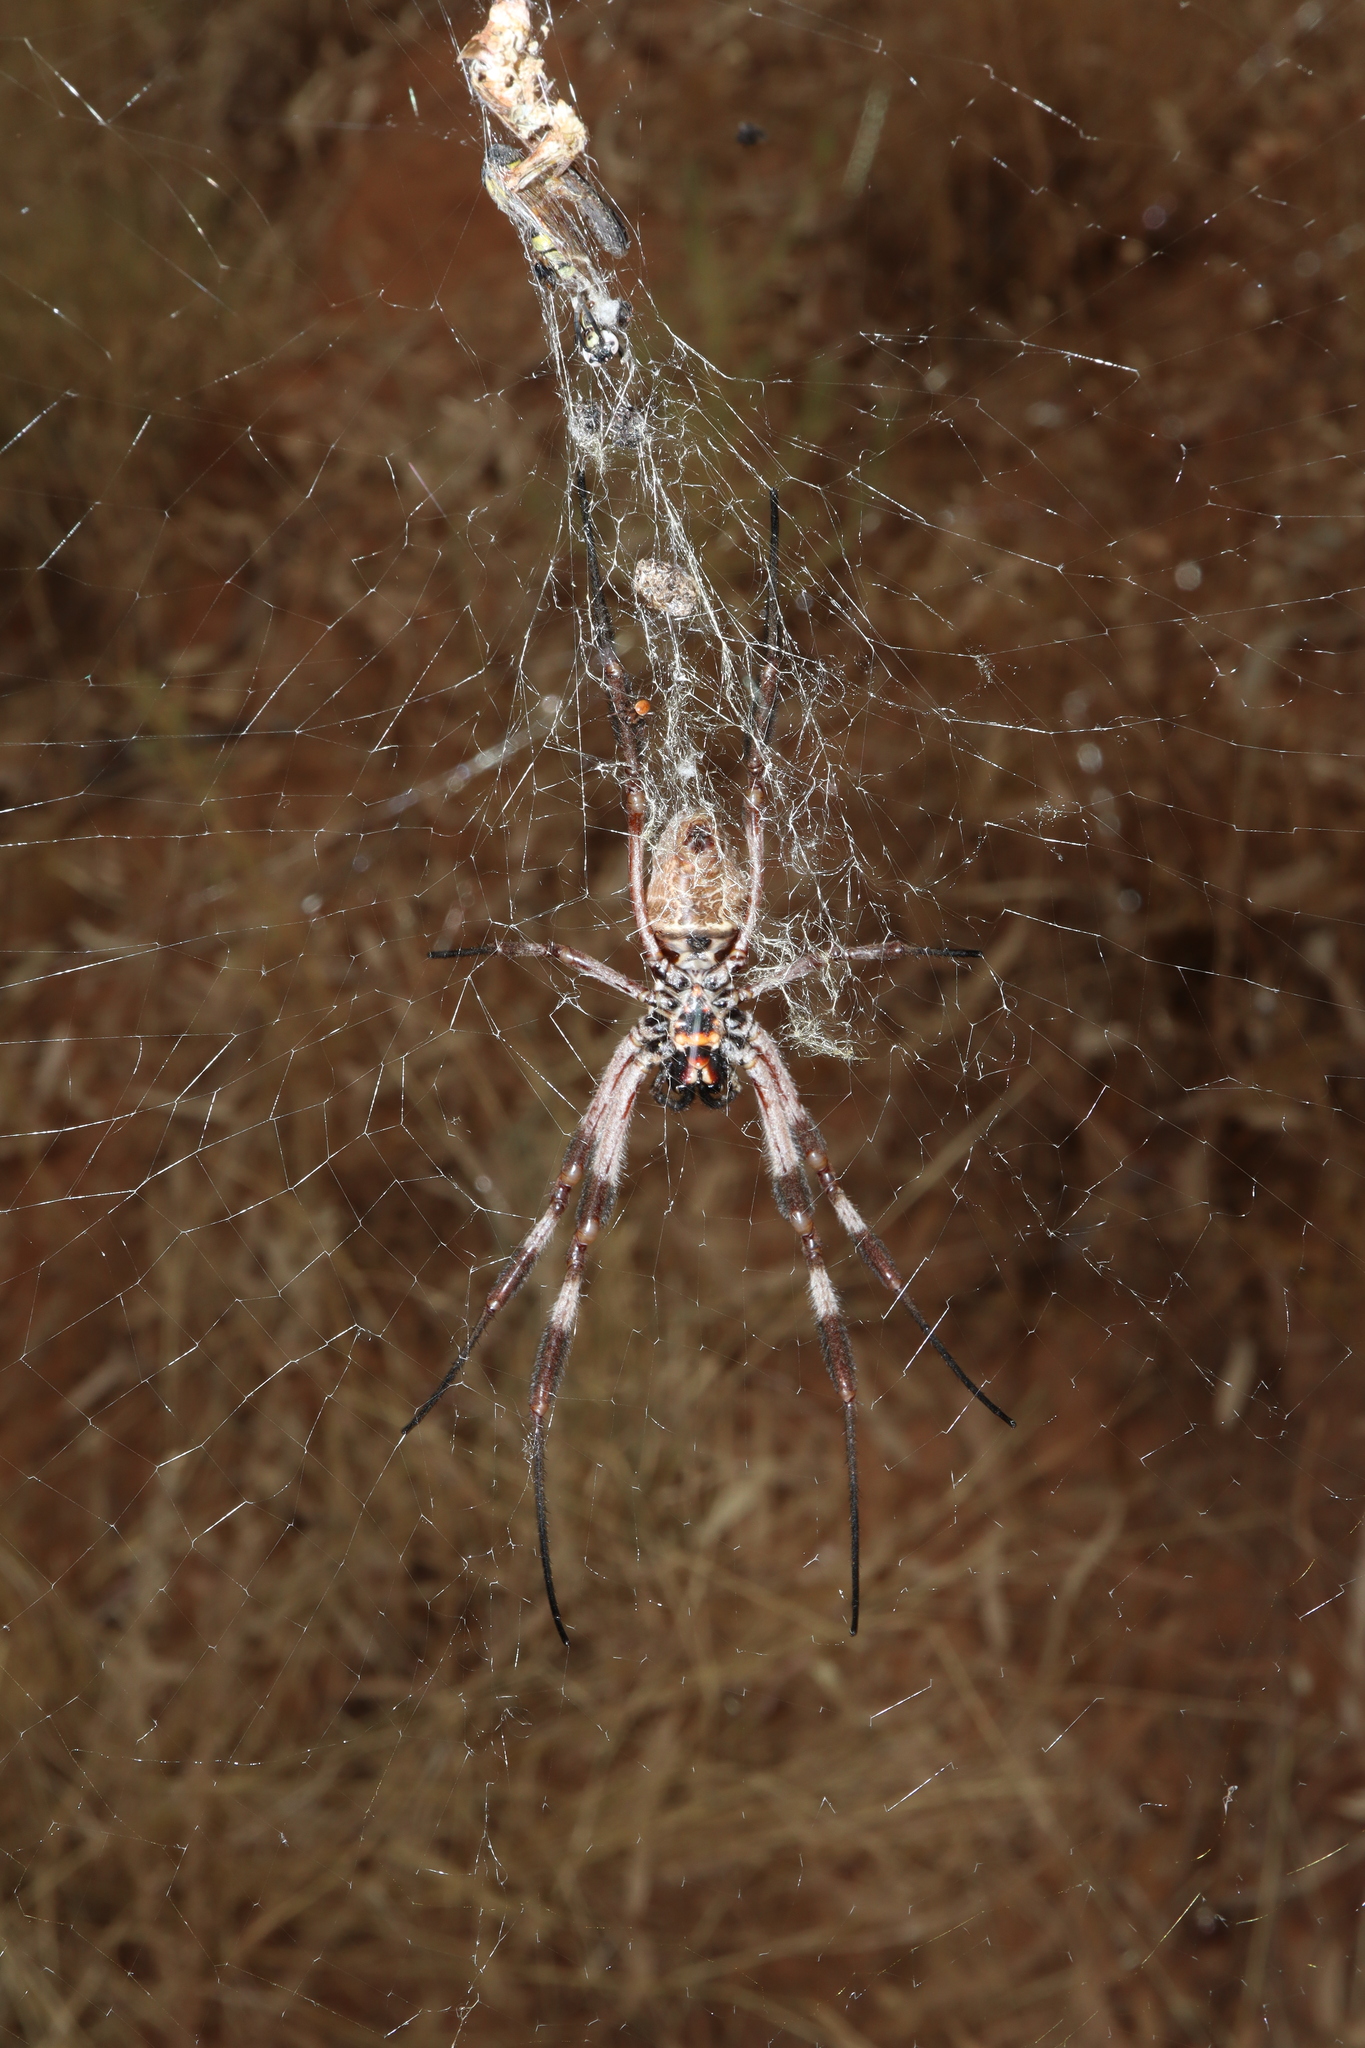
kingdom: Animalia
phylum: Arthropoda
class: Arachnida
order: Araneae
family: Araneidae
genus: Trichonephila
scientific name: Trichonephila edulis
